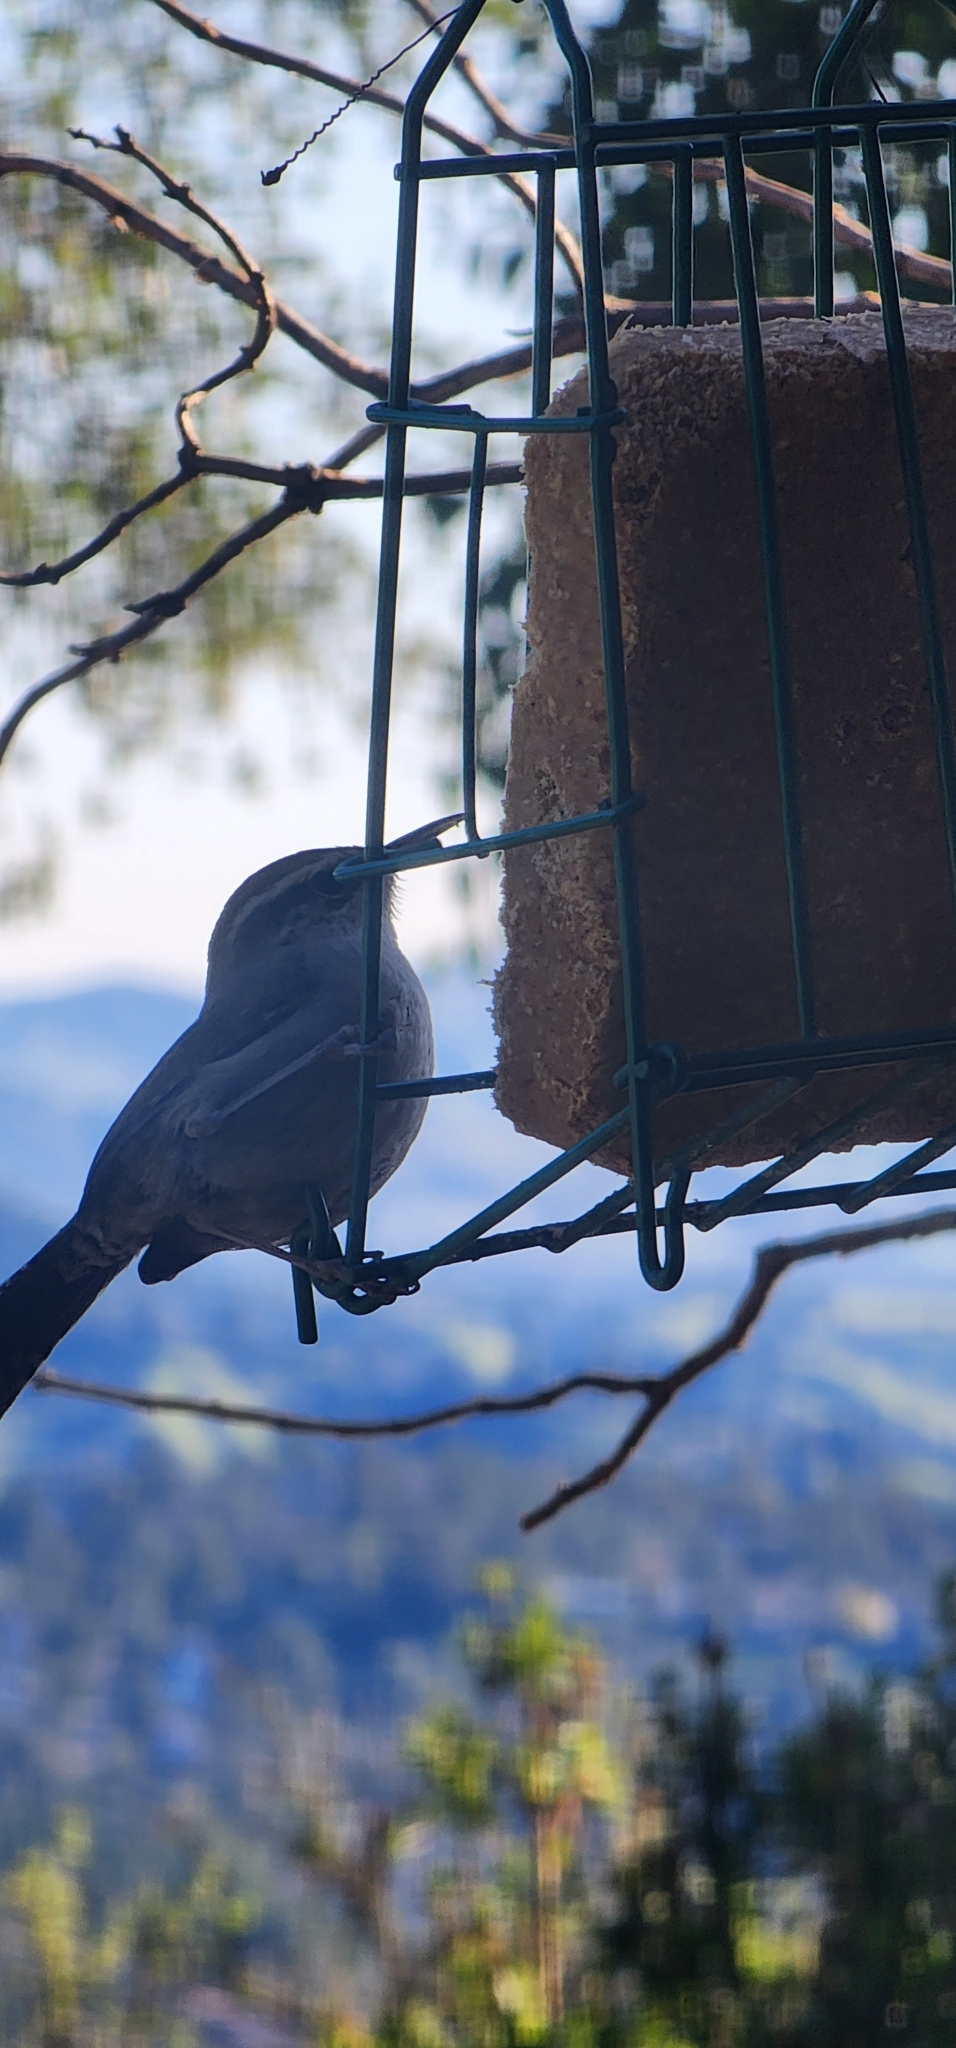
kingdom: Animalia
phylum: Chordata
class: Aves
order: Passeriformes
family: Troglodytidae
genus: Thryomanes
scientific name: Thryomanes bewickii
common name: Bewick's wren
